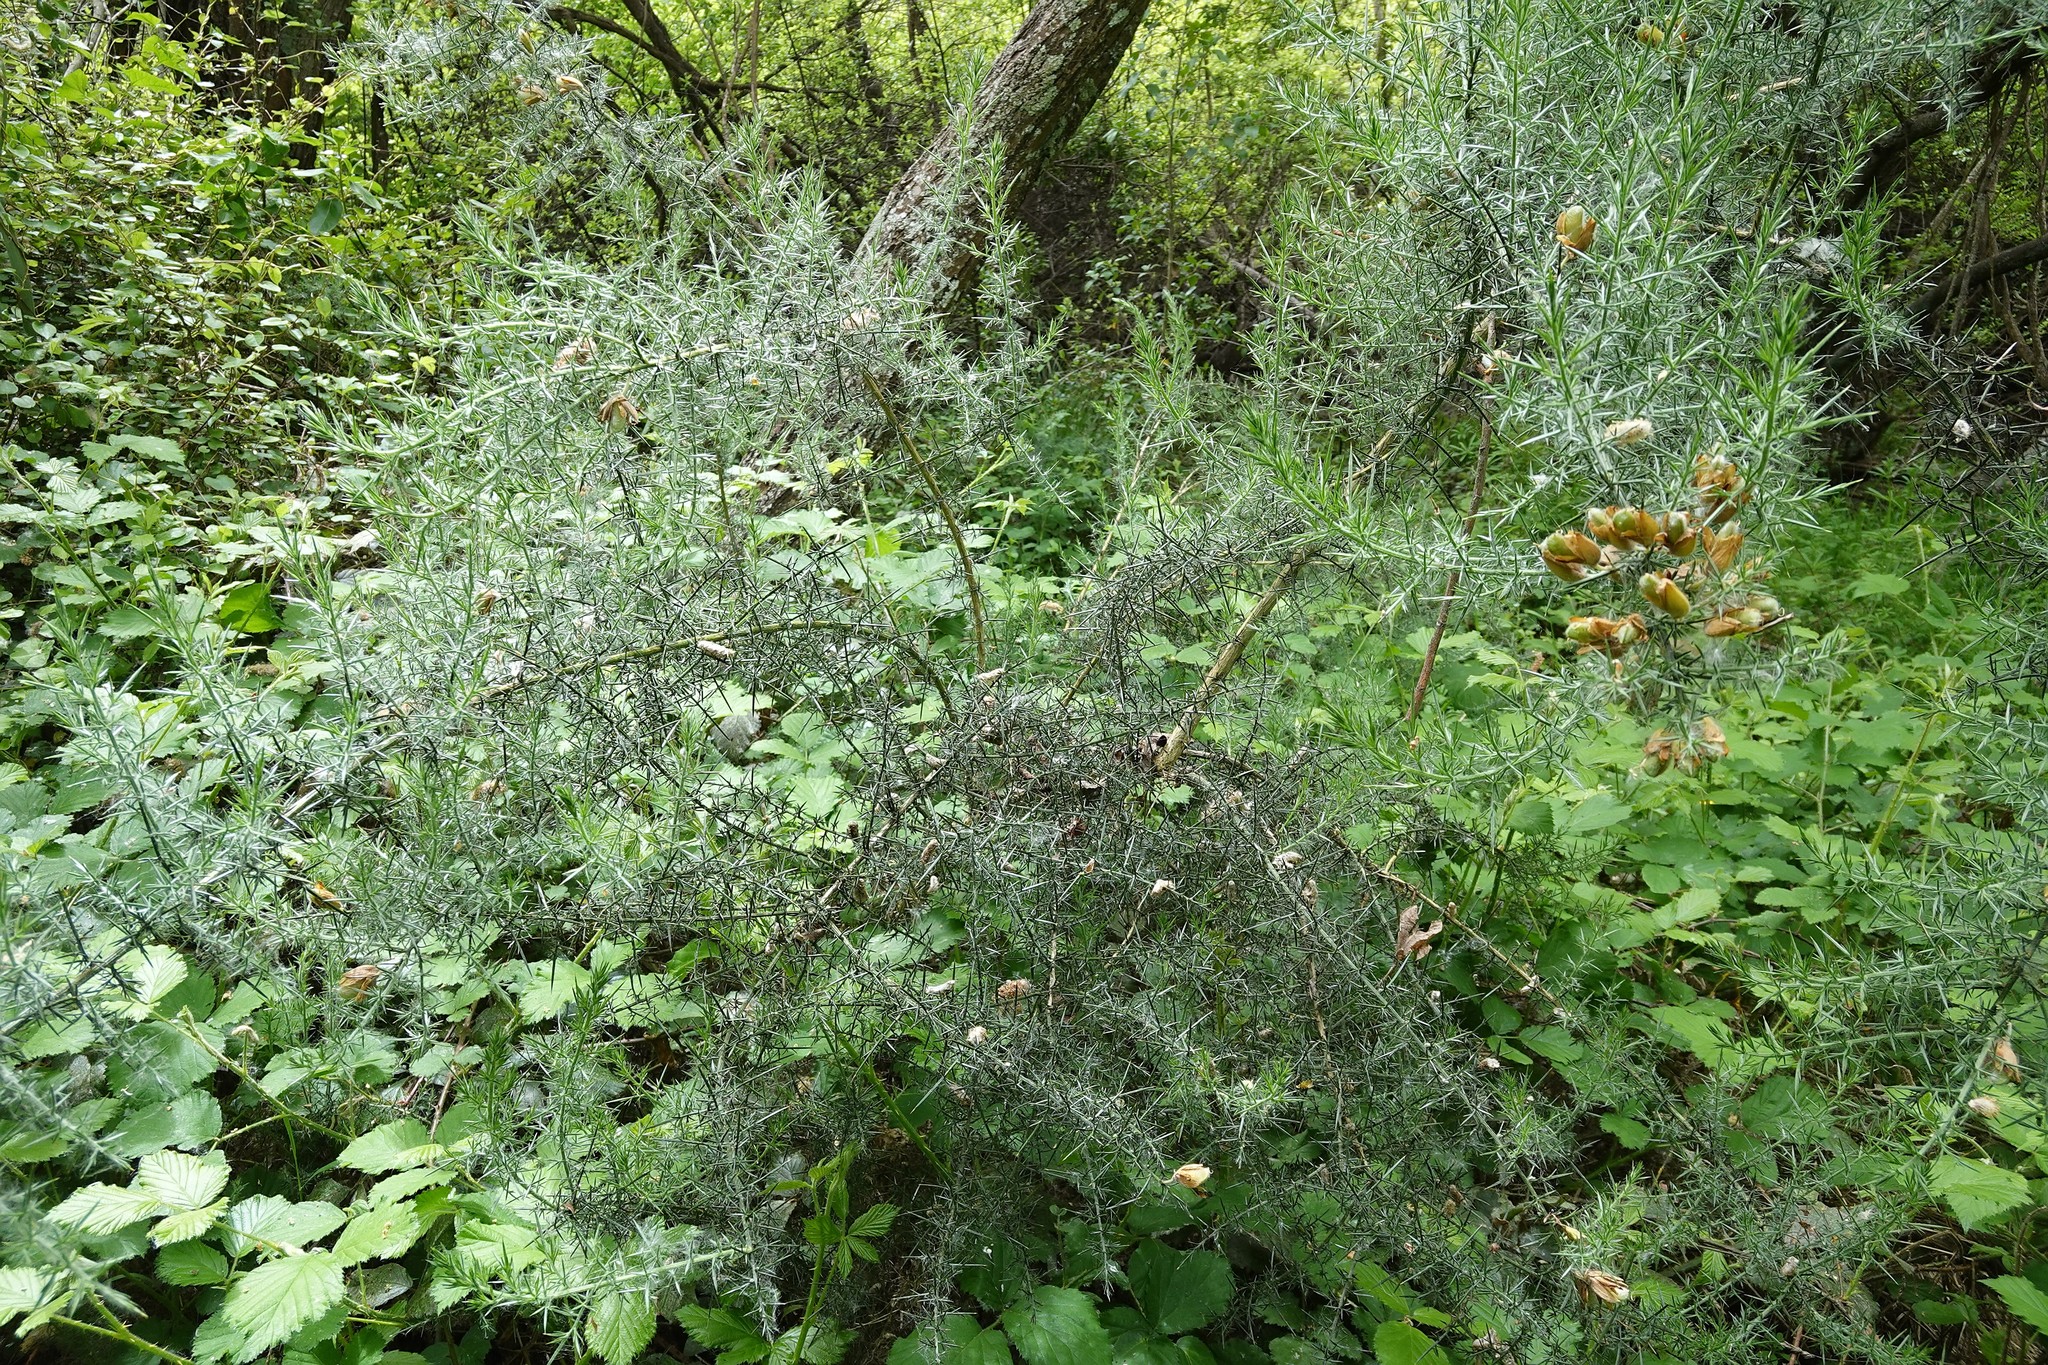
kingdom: Plantae
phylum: Tracheophyta
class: Magnoliopsida
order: Fabales
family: Fabaceae
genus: Ulex
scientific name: Ulex europaeus
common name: Common gorse
